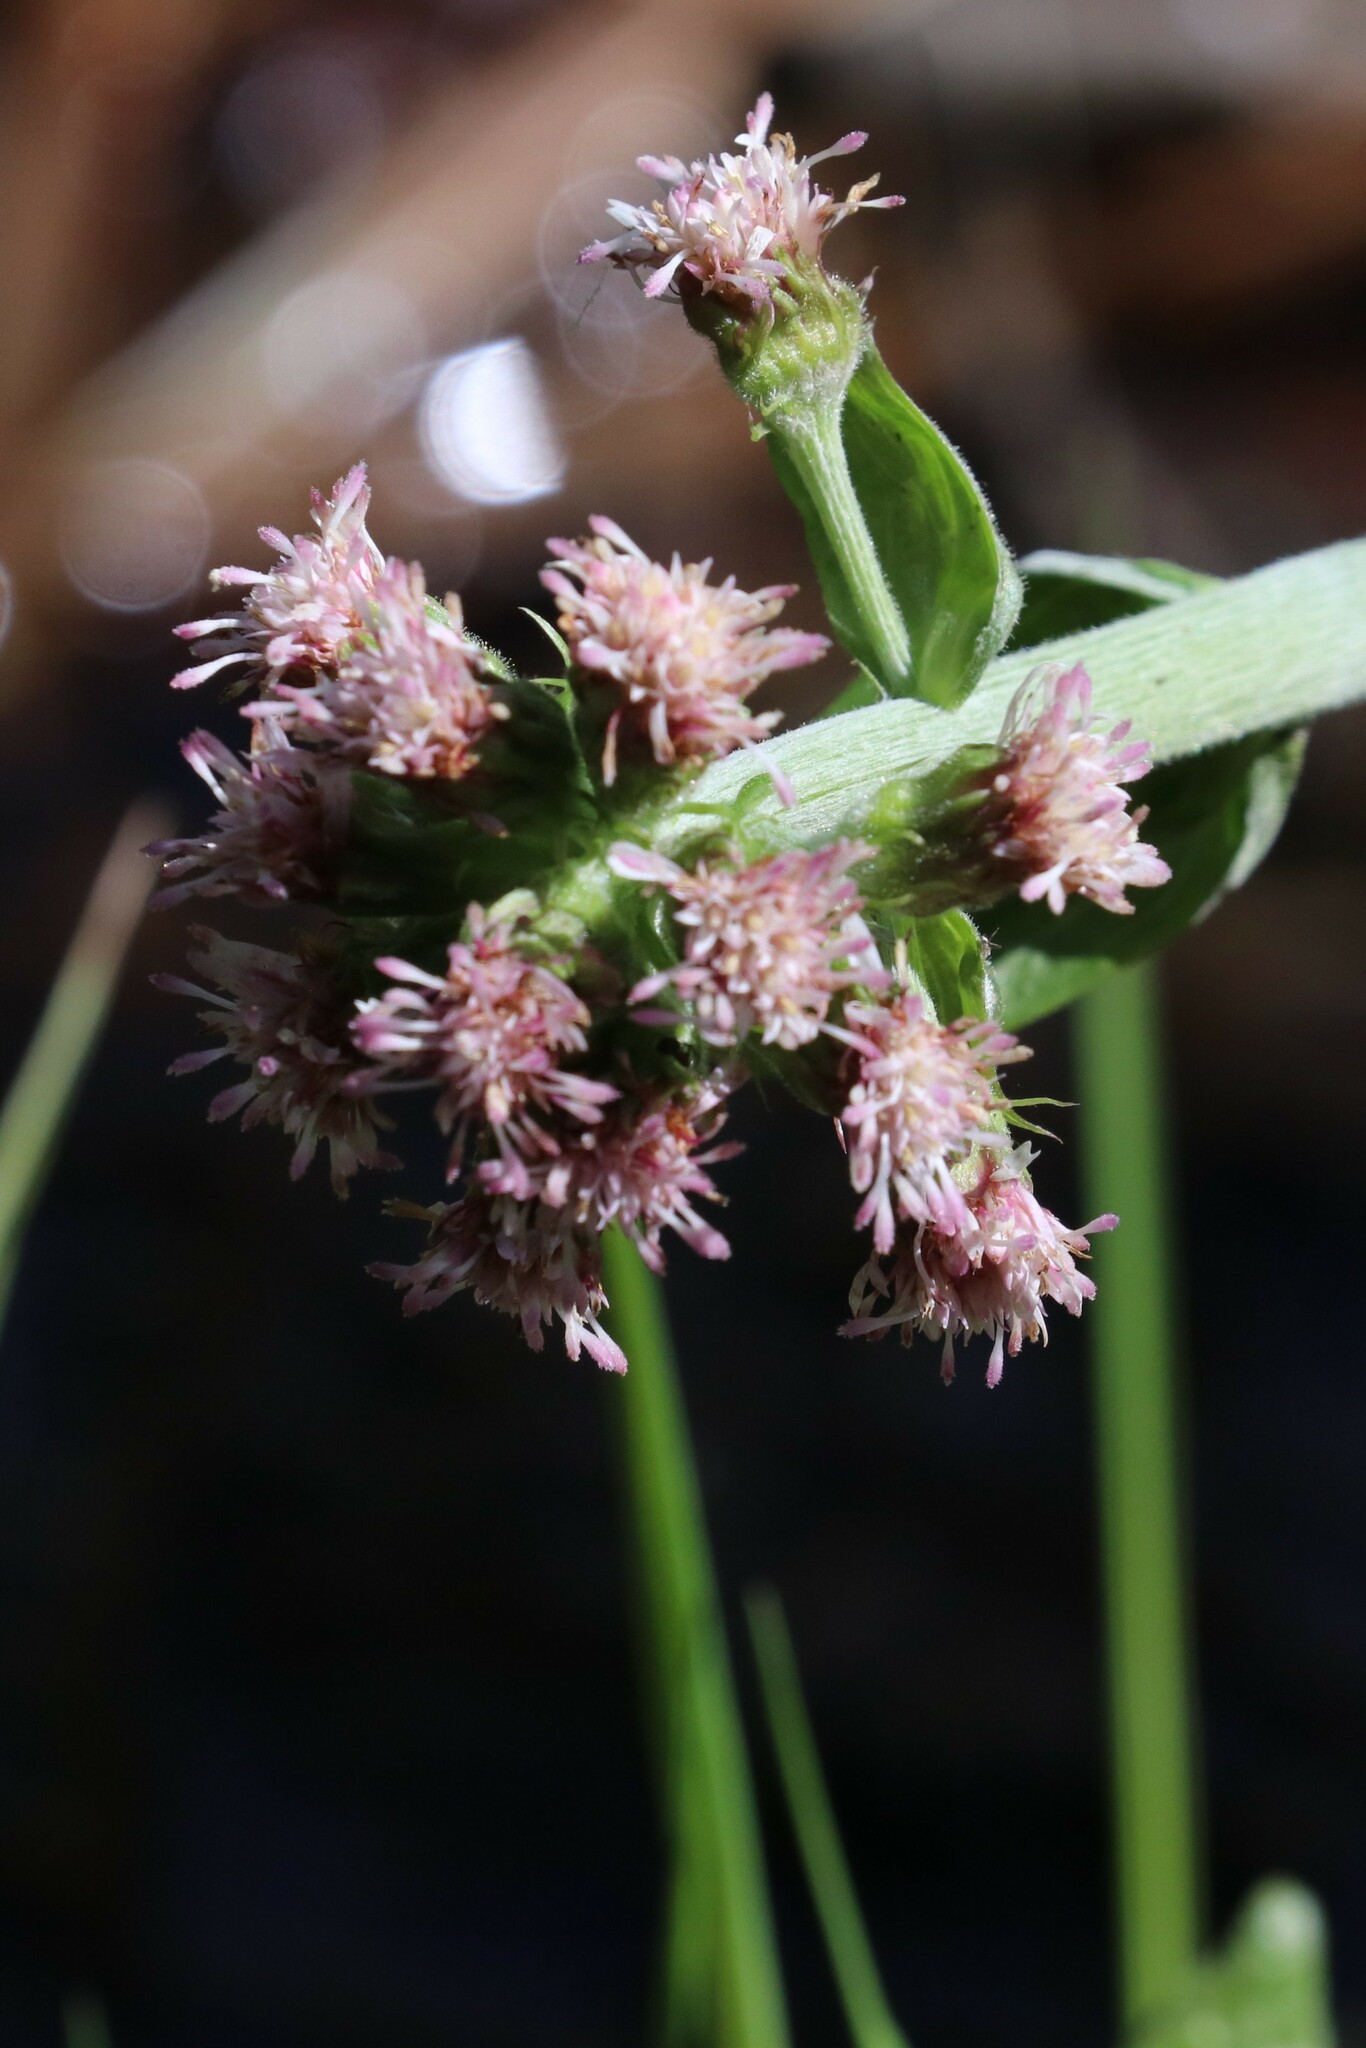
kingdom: Plantae
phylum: Tracheophyta
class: Magnoliopsida
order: Asterales
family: Asteraceae
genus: Petasites
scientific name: Petasites frigidus
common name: Arctic butterbur
